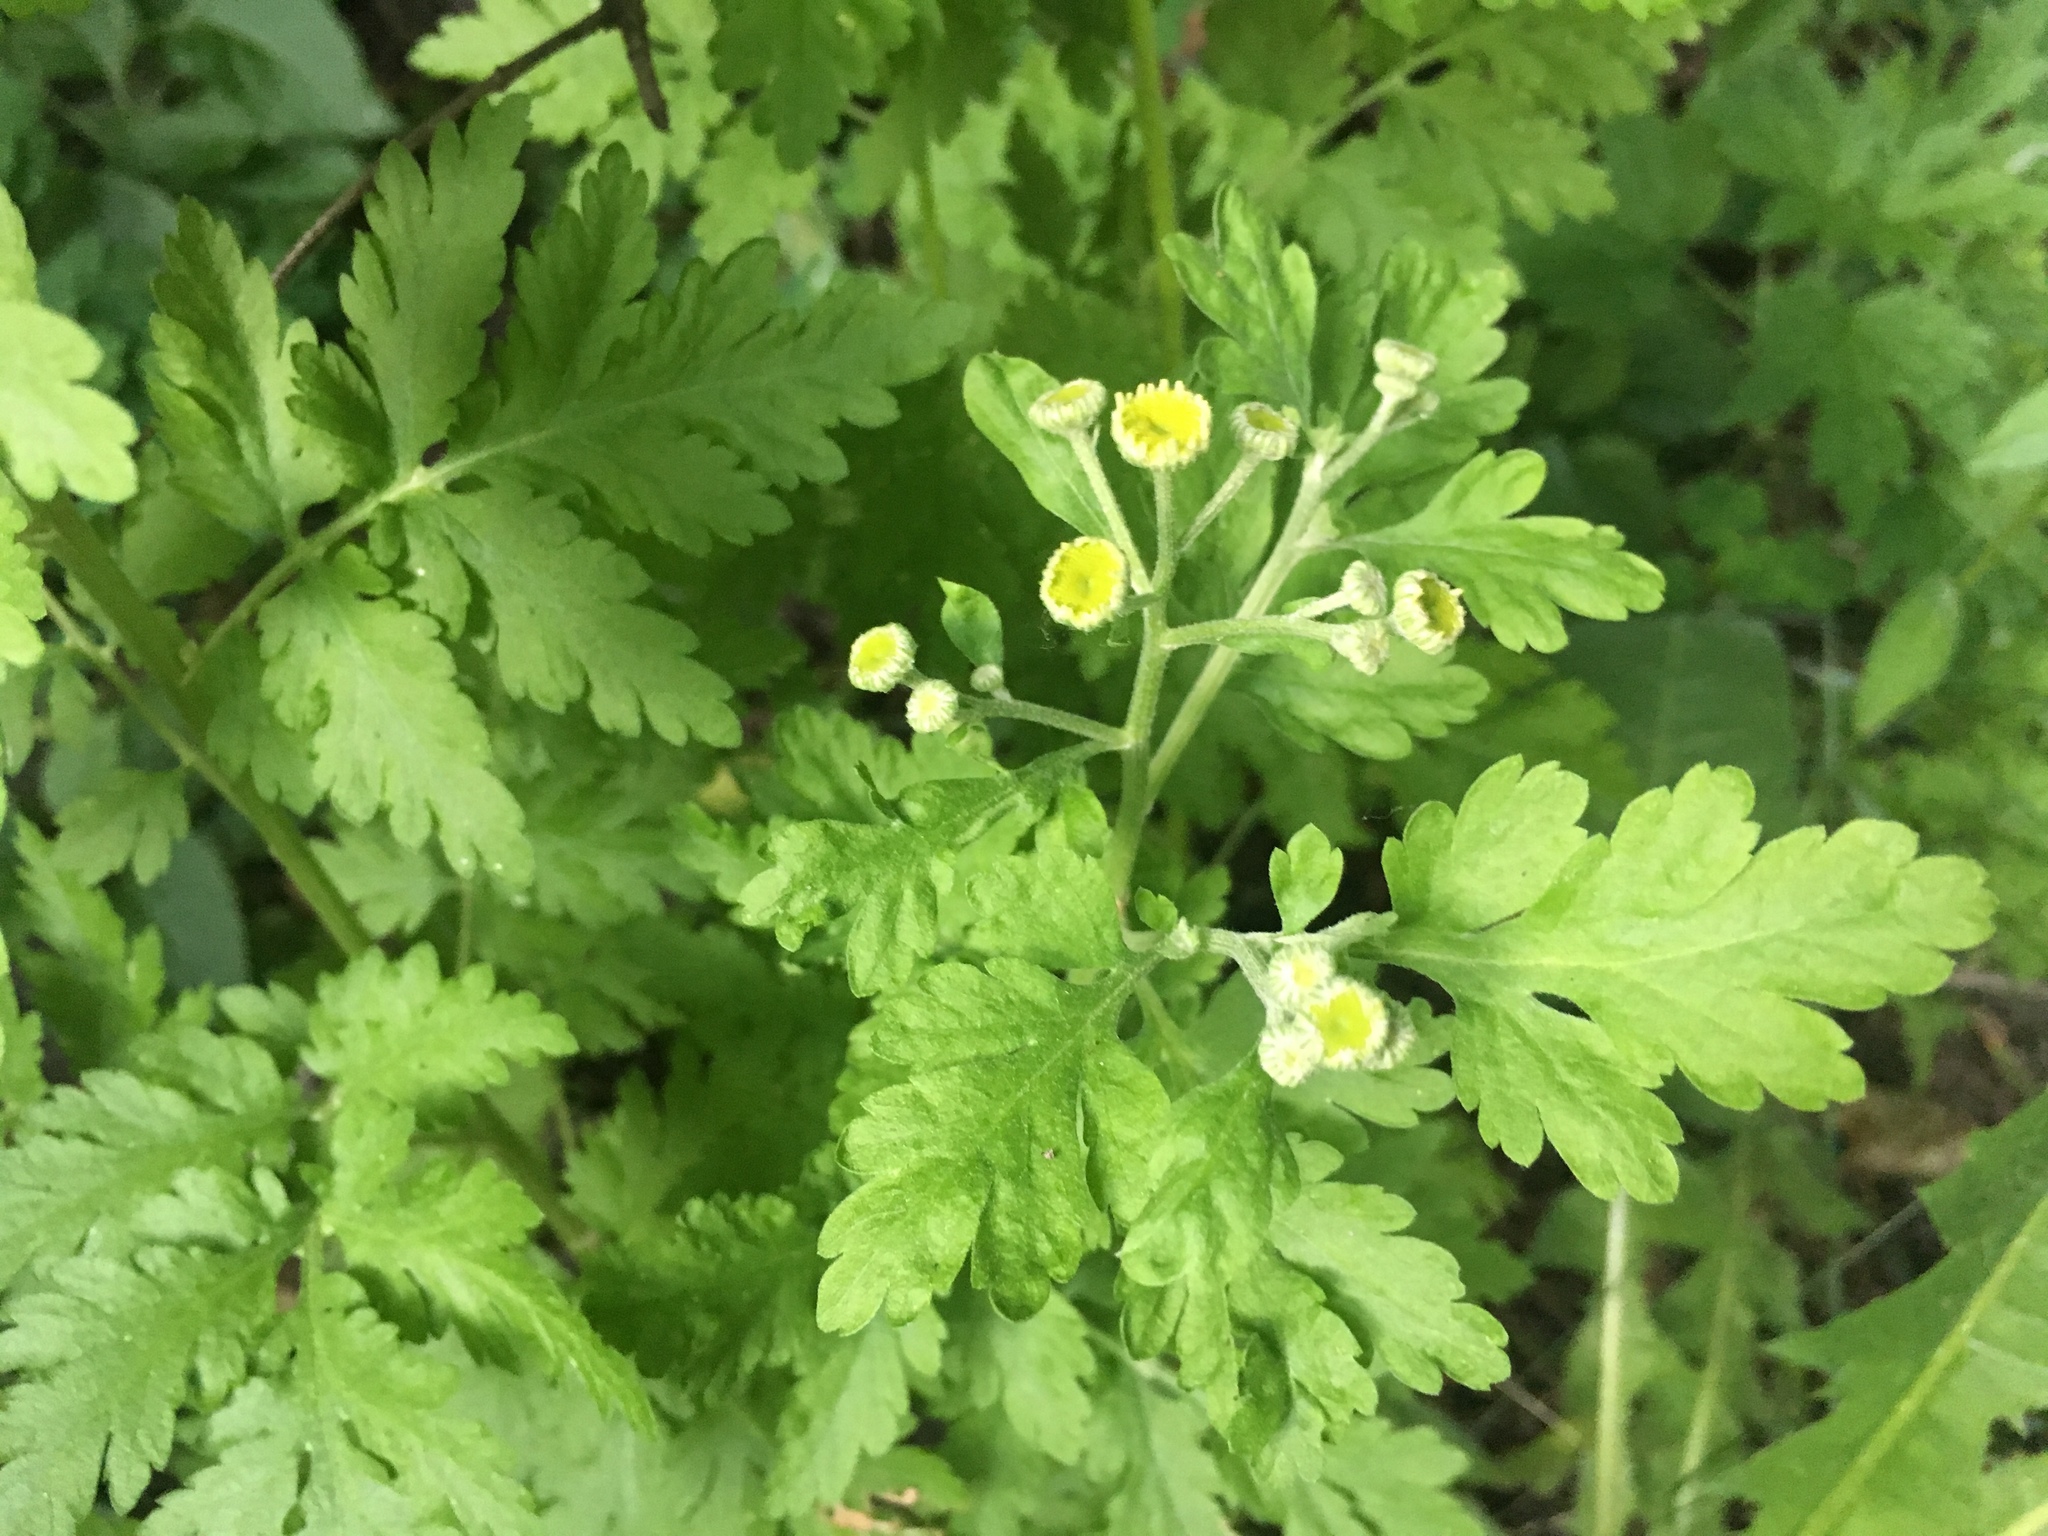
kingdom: Plantae
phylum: Tracheophyta
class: Magnoliopsida
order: Asterales
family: Asteraceae
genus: Tanacetum
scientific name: Tanacetum parthenium
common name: Feverfew
